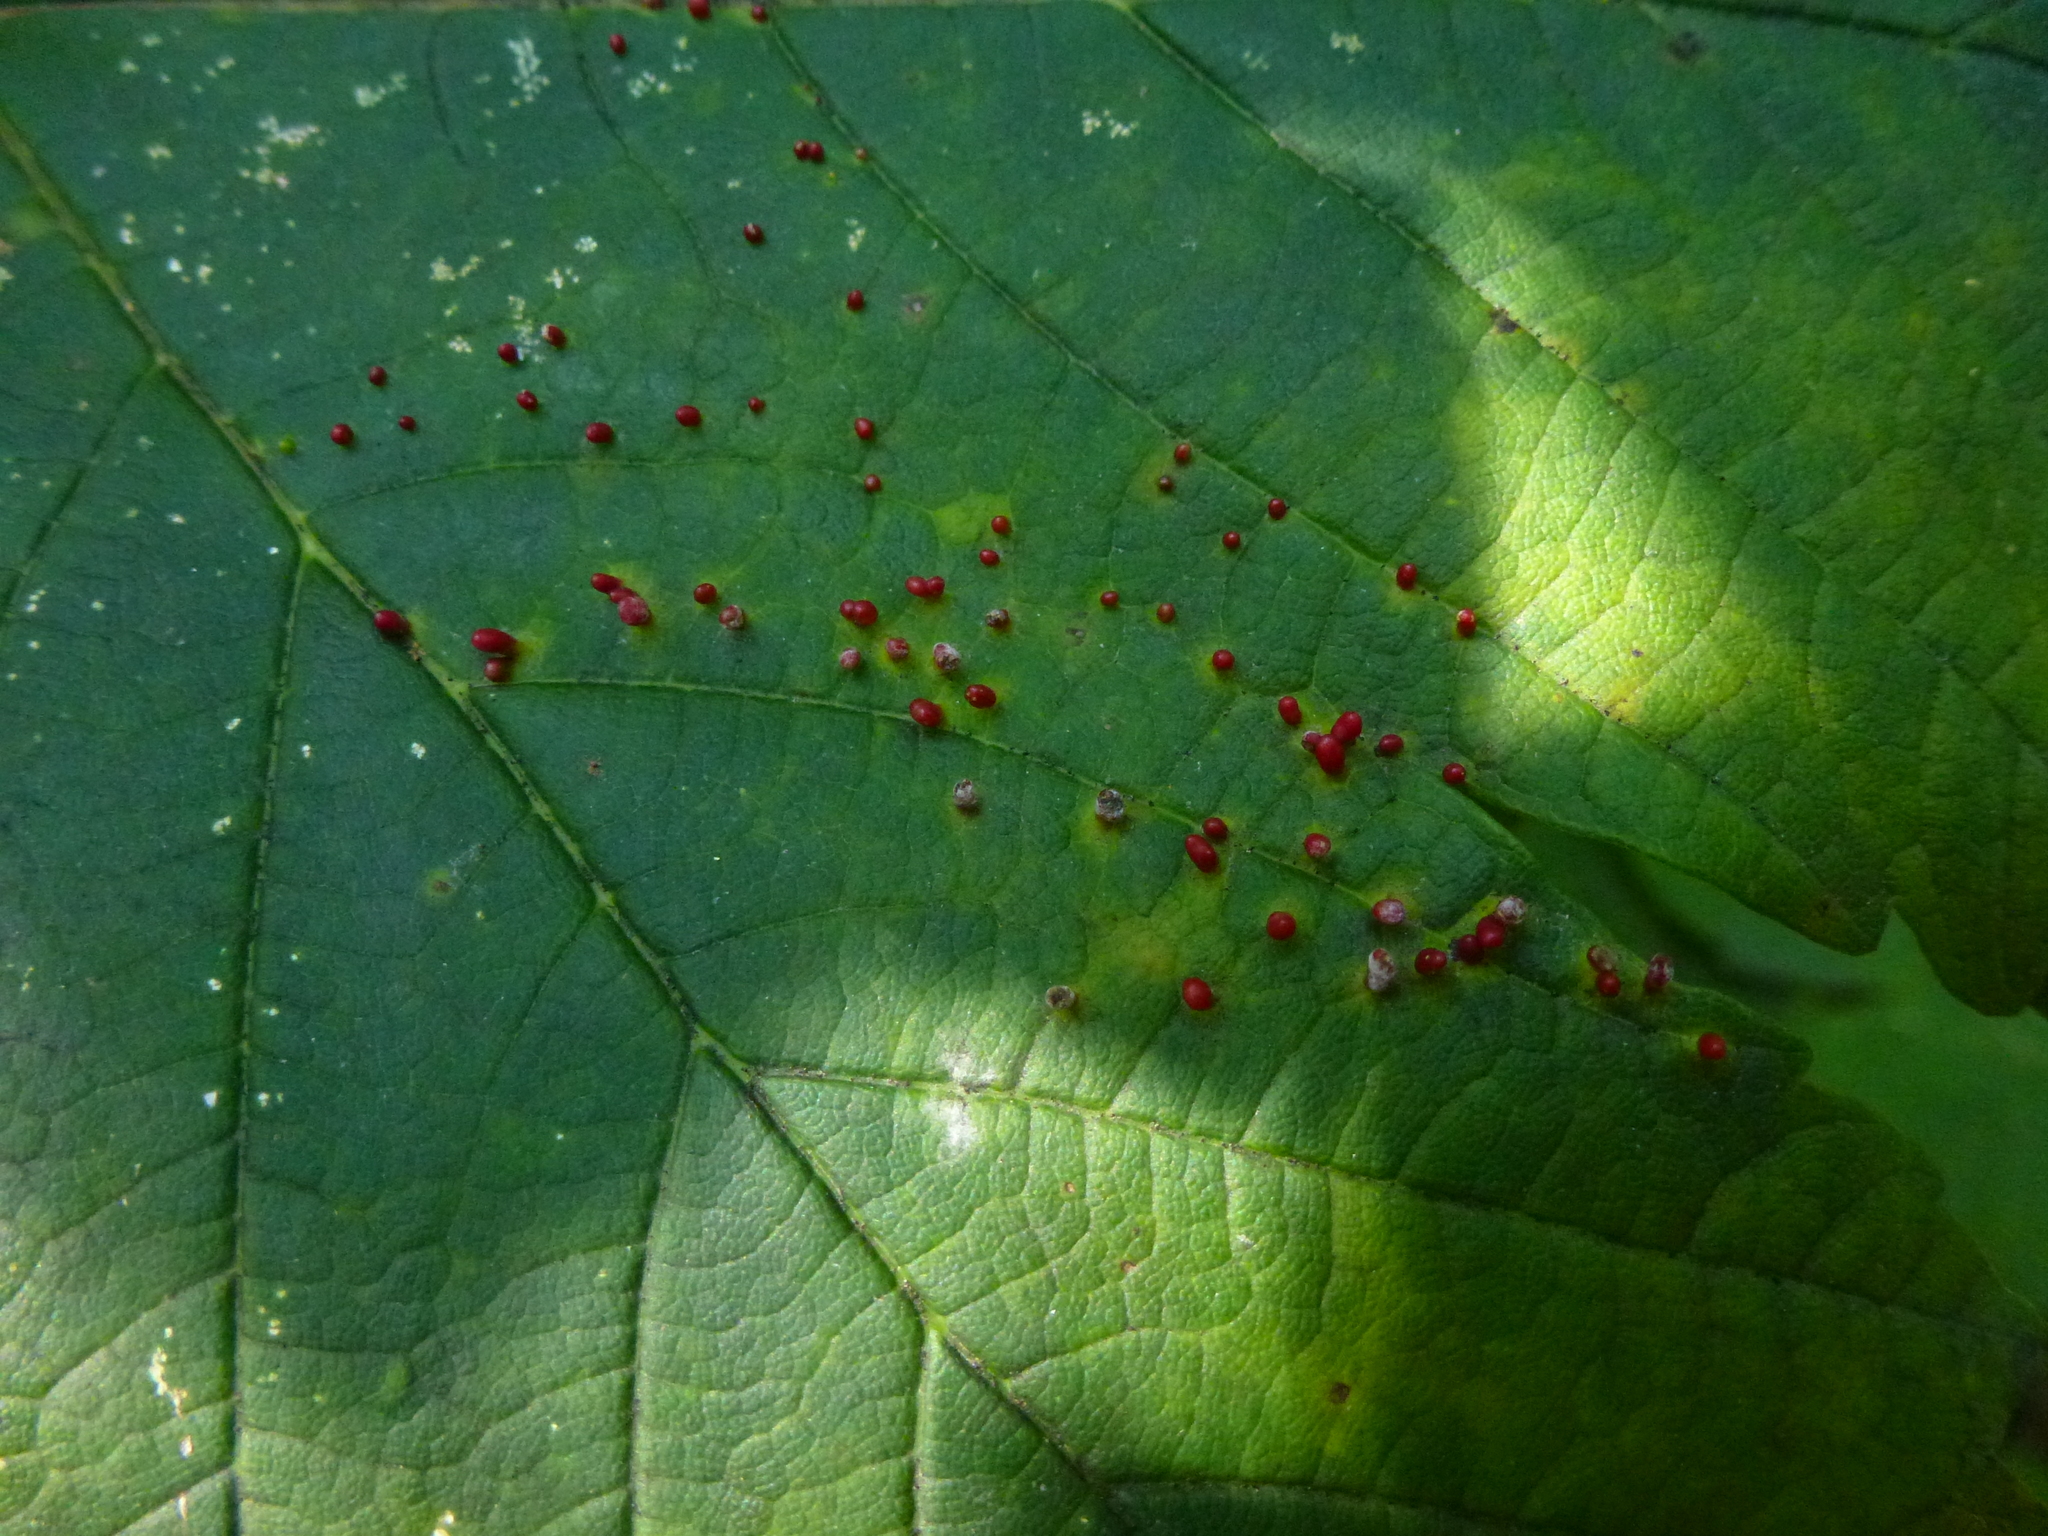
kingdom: Animalia
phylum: Arthropoda
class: Arachnida
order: Trombidiformes
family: Eriophyidae
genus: Aceria
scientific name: Aceria cephaloneus
